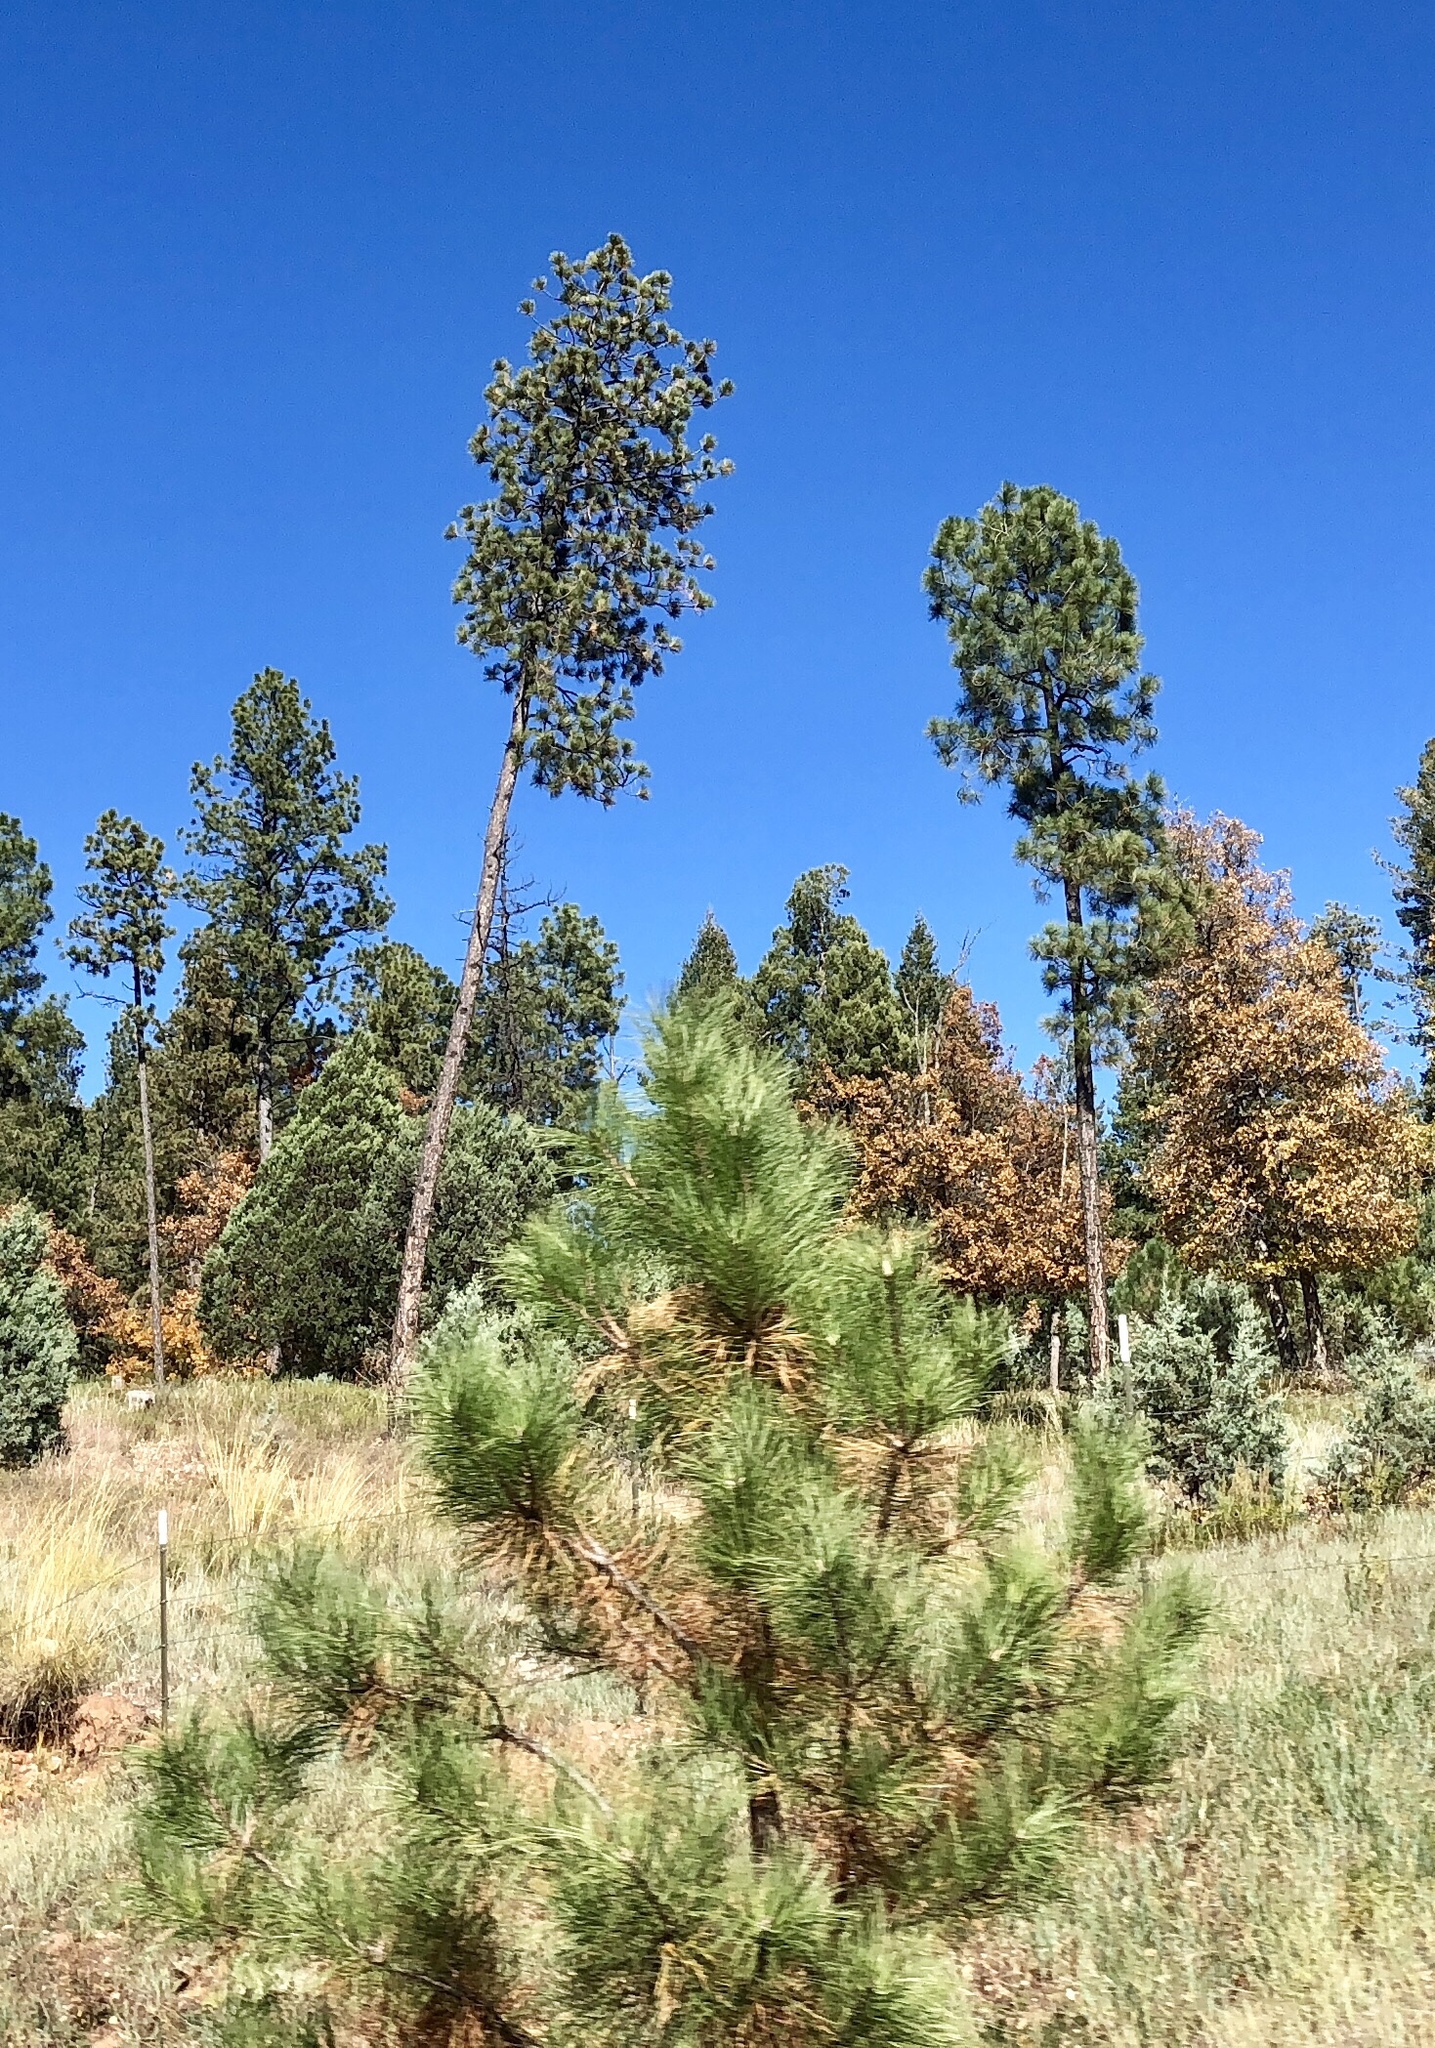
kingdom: Plantae
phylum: Tracheophyta
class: Pinopsida
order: Pinales
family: Pinaceae
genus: Pinus
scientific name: Pinus ponderosa
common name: Western yellow-pine
